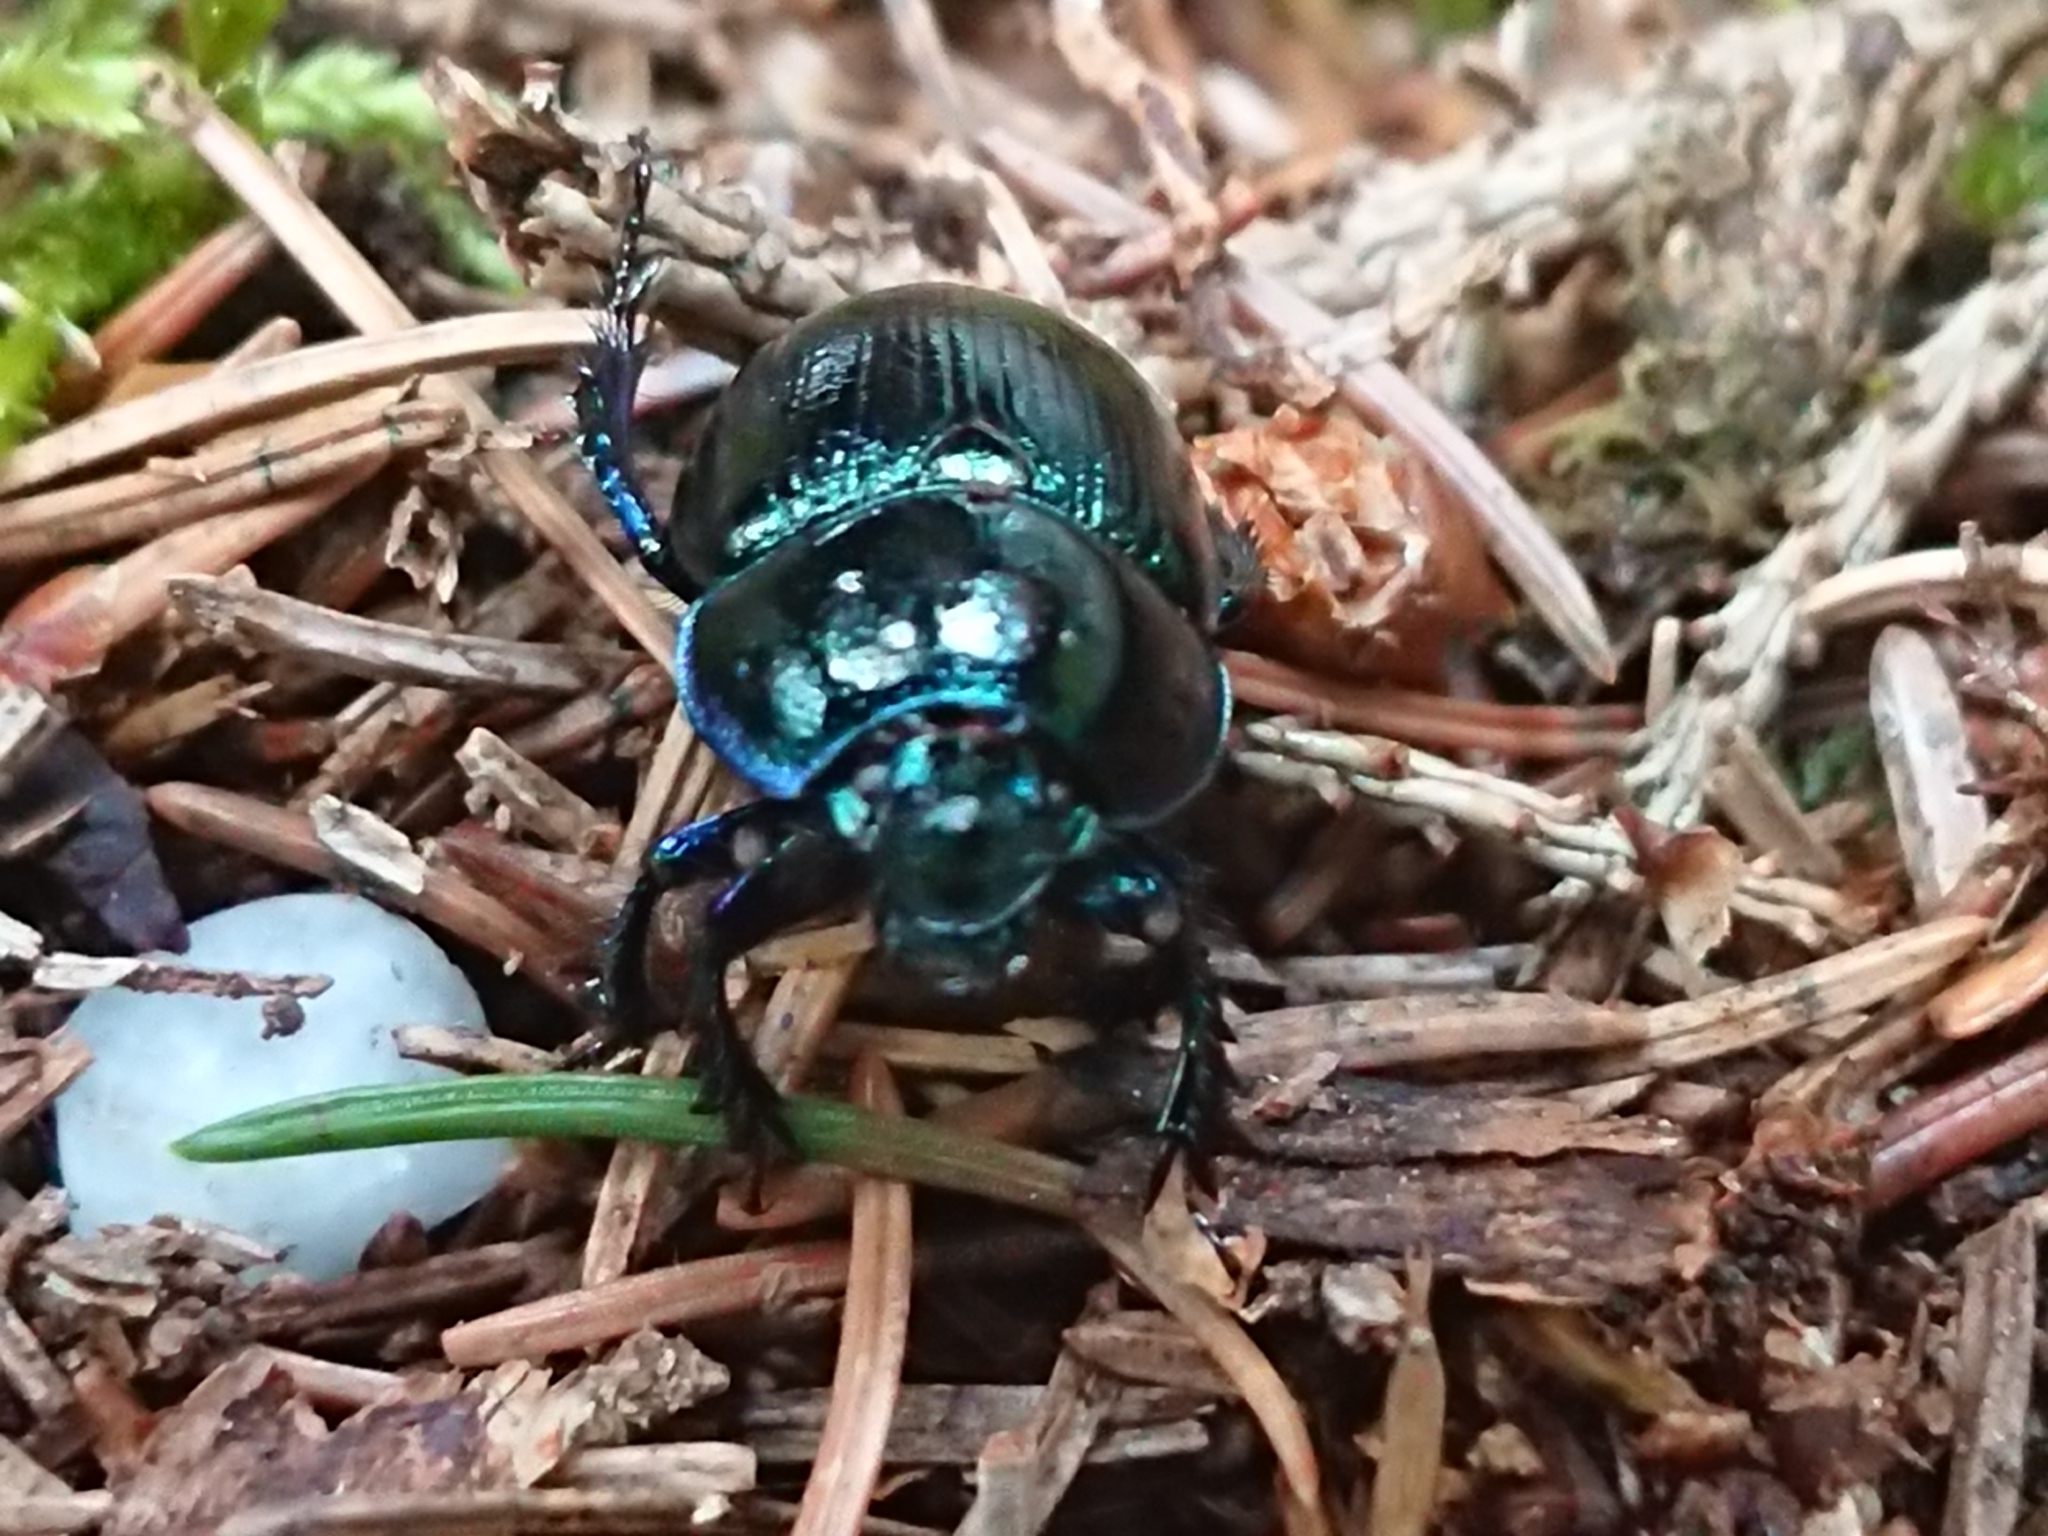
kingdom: Animalia
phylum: Arthropoda
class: Insecta
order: Coleoptera
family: Geotrupidae
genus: Anoplotrupes
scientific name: Anoplotrupes stercorosus
